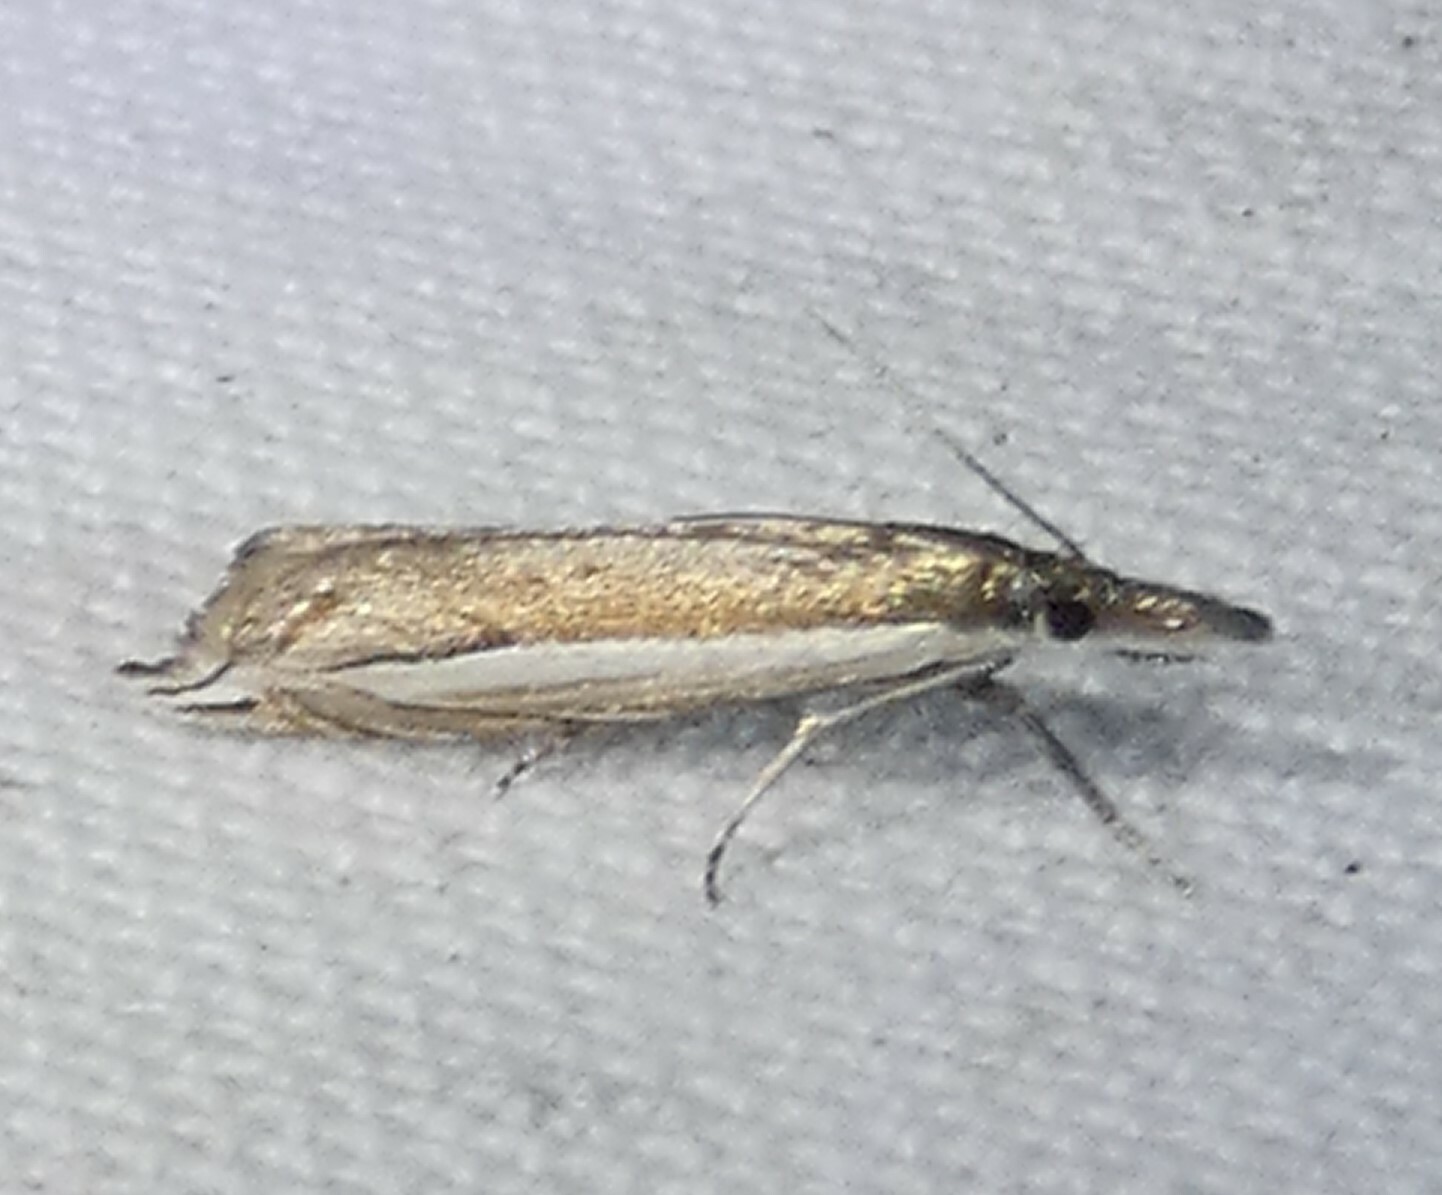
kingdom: Animalia
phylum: Arthropoda
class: Insecta
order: Lepidoptera
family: Crambidae
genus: Raphiptera
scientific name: Raphiptera argillaceellus
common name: Diminutive grass-veneer
